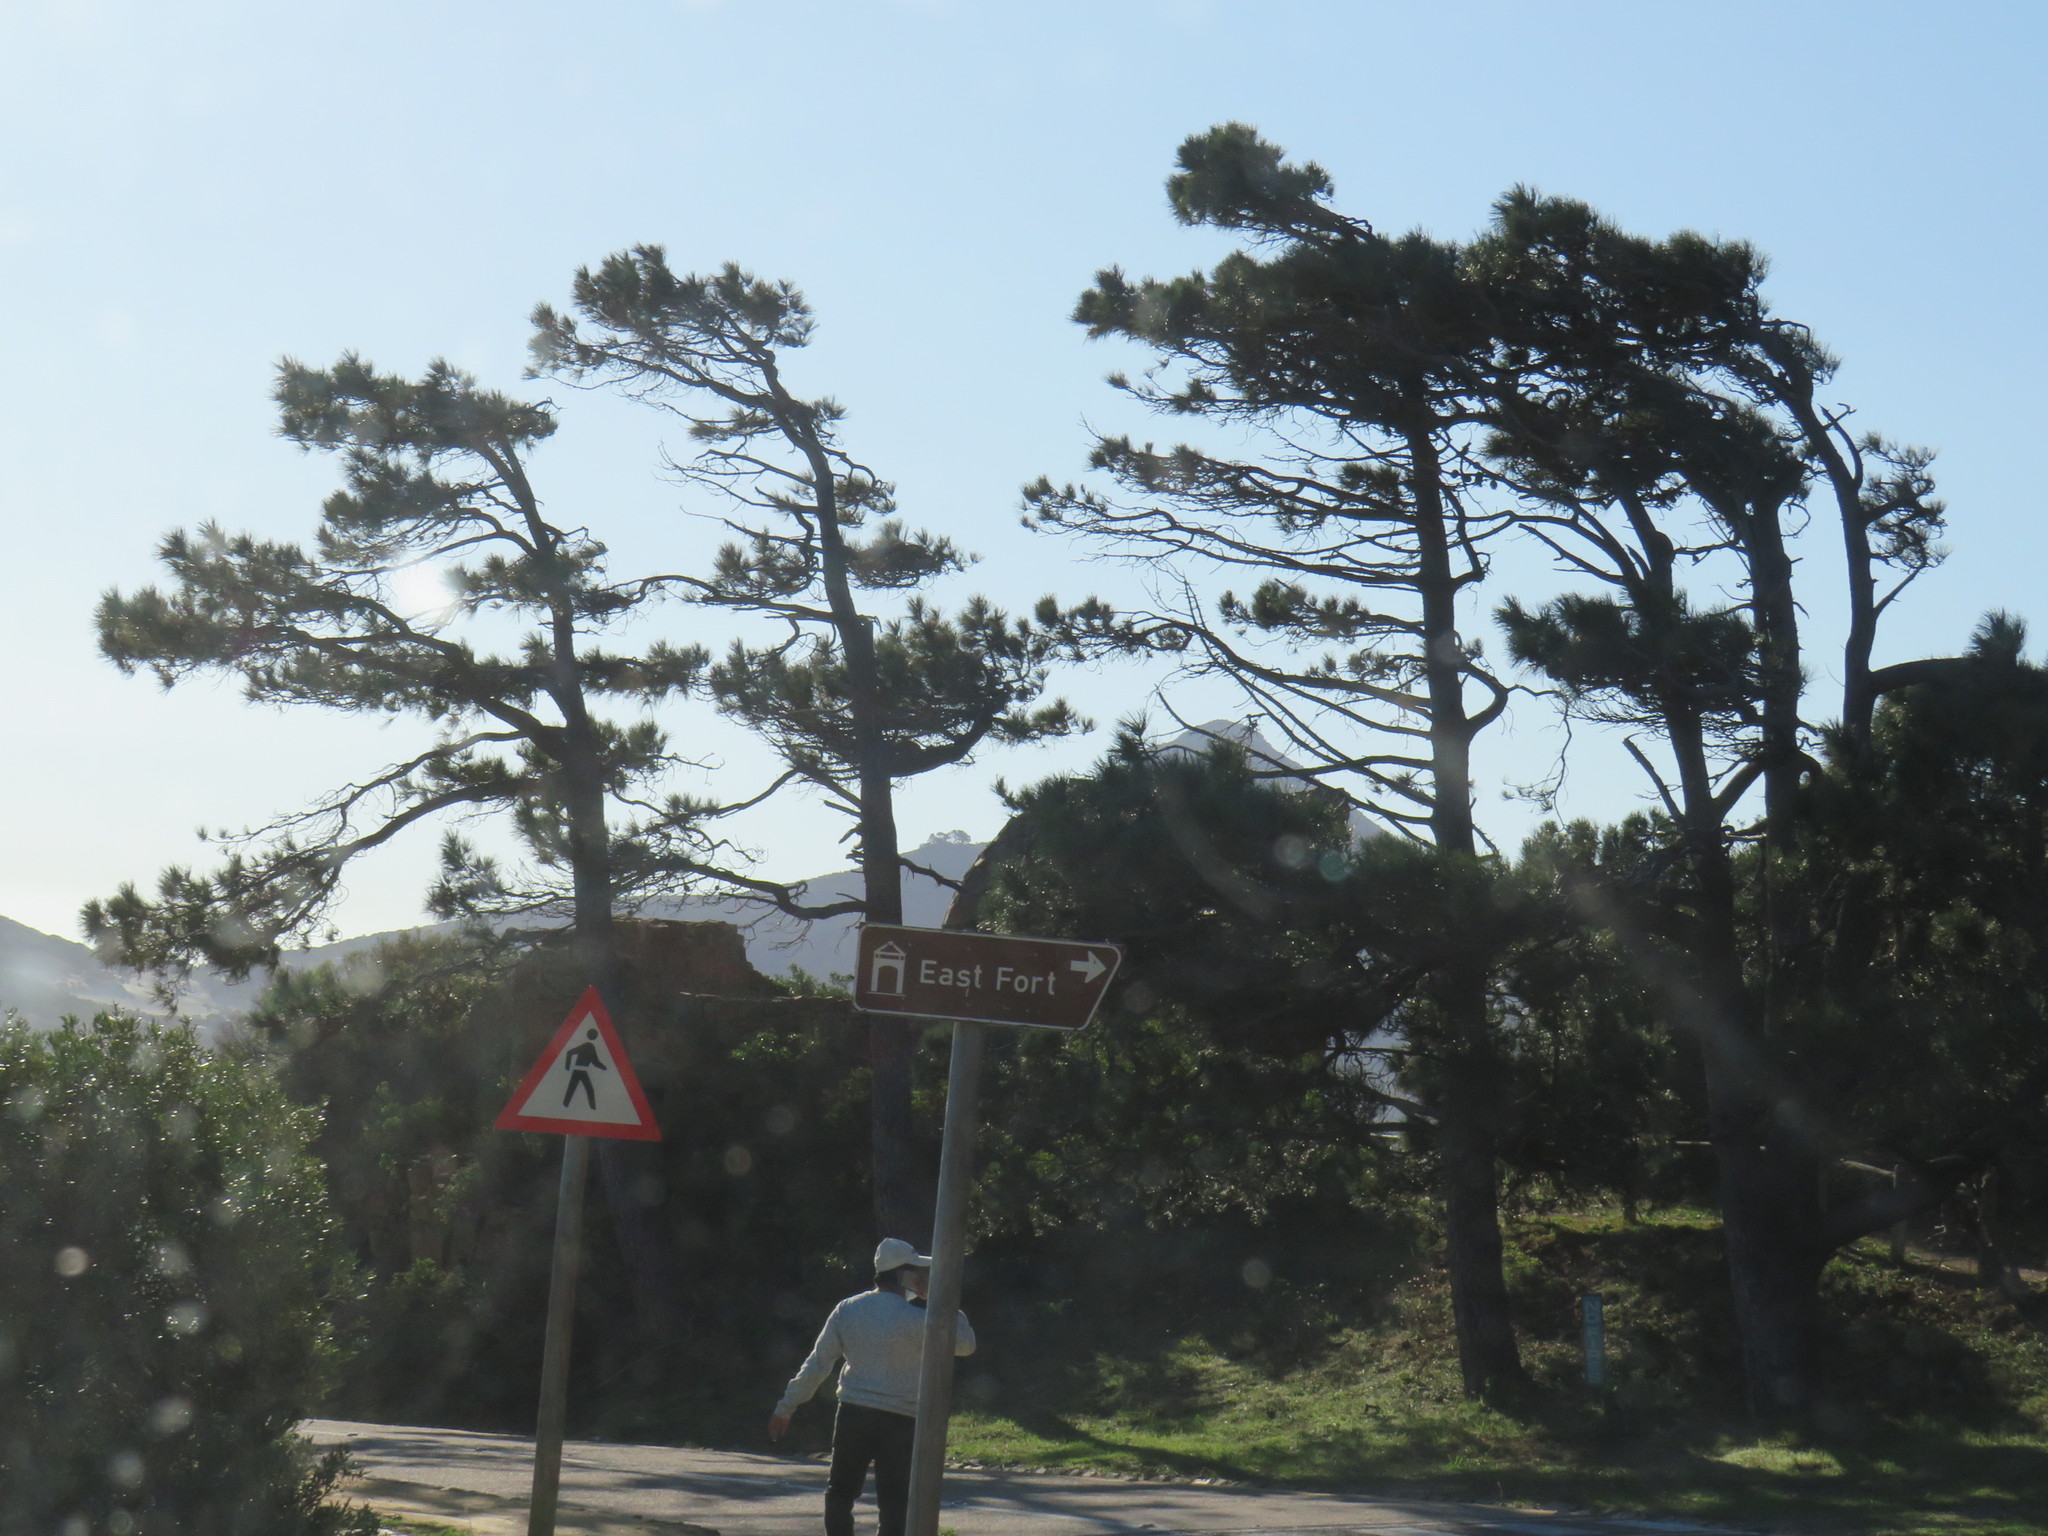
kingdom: Plantae
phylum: Tracheophyta
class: Pinopsida
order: Pinales
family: Pinaceae
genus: Pinus
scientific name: Pinus radiata
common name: Monterey pine
